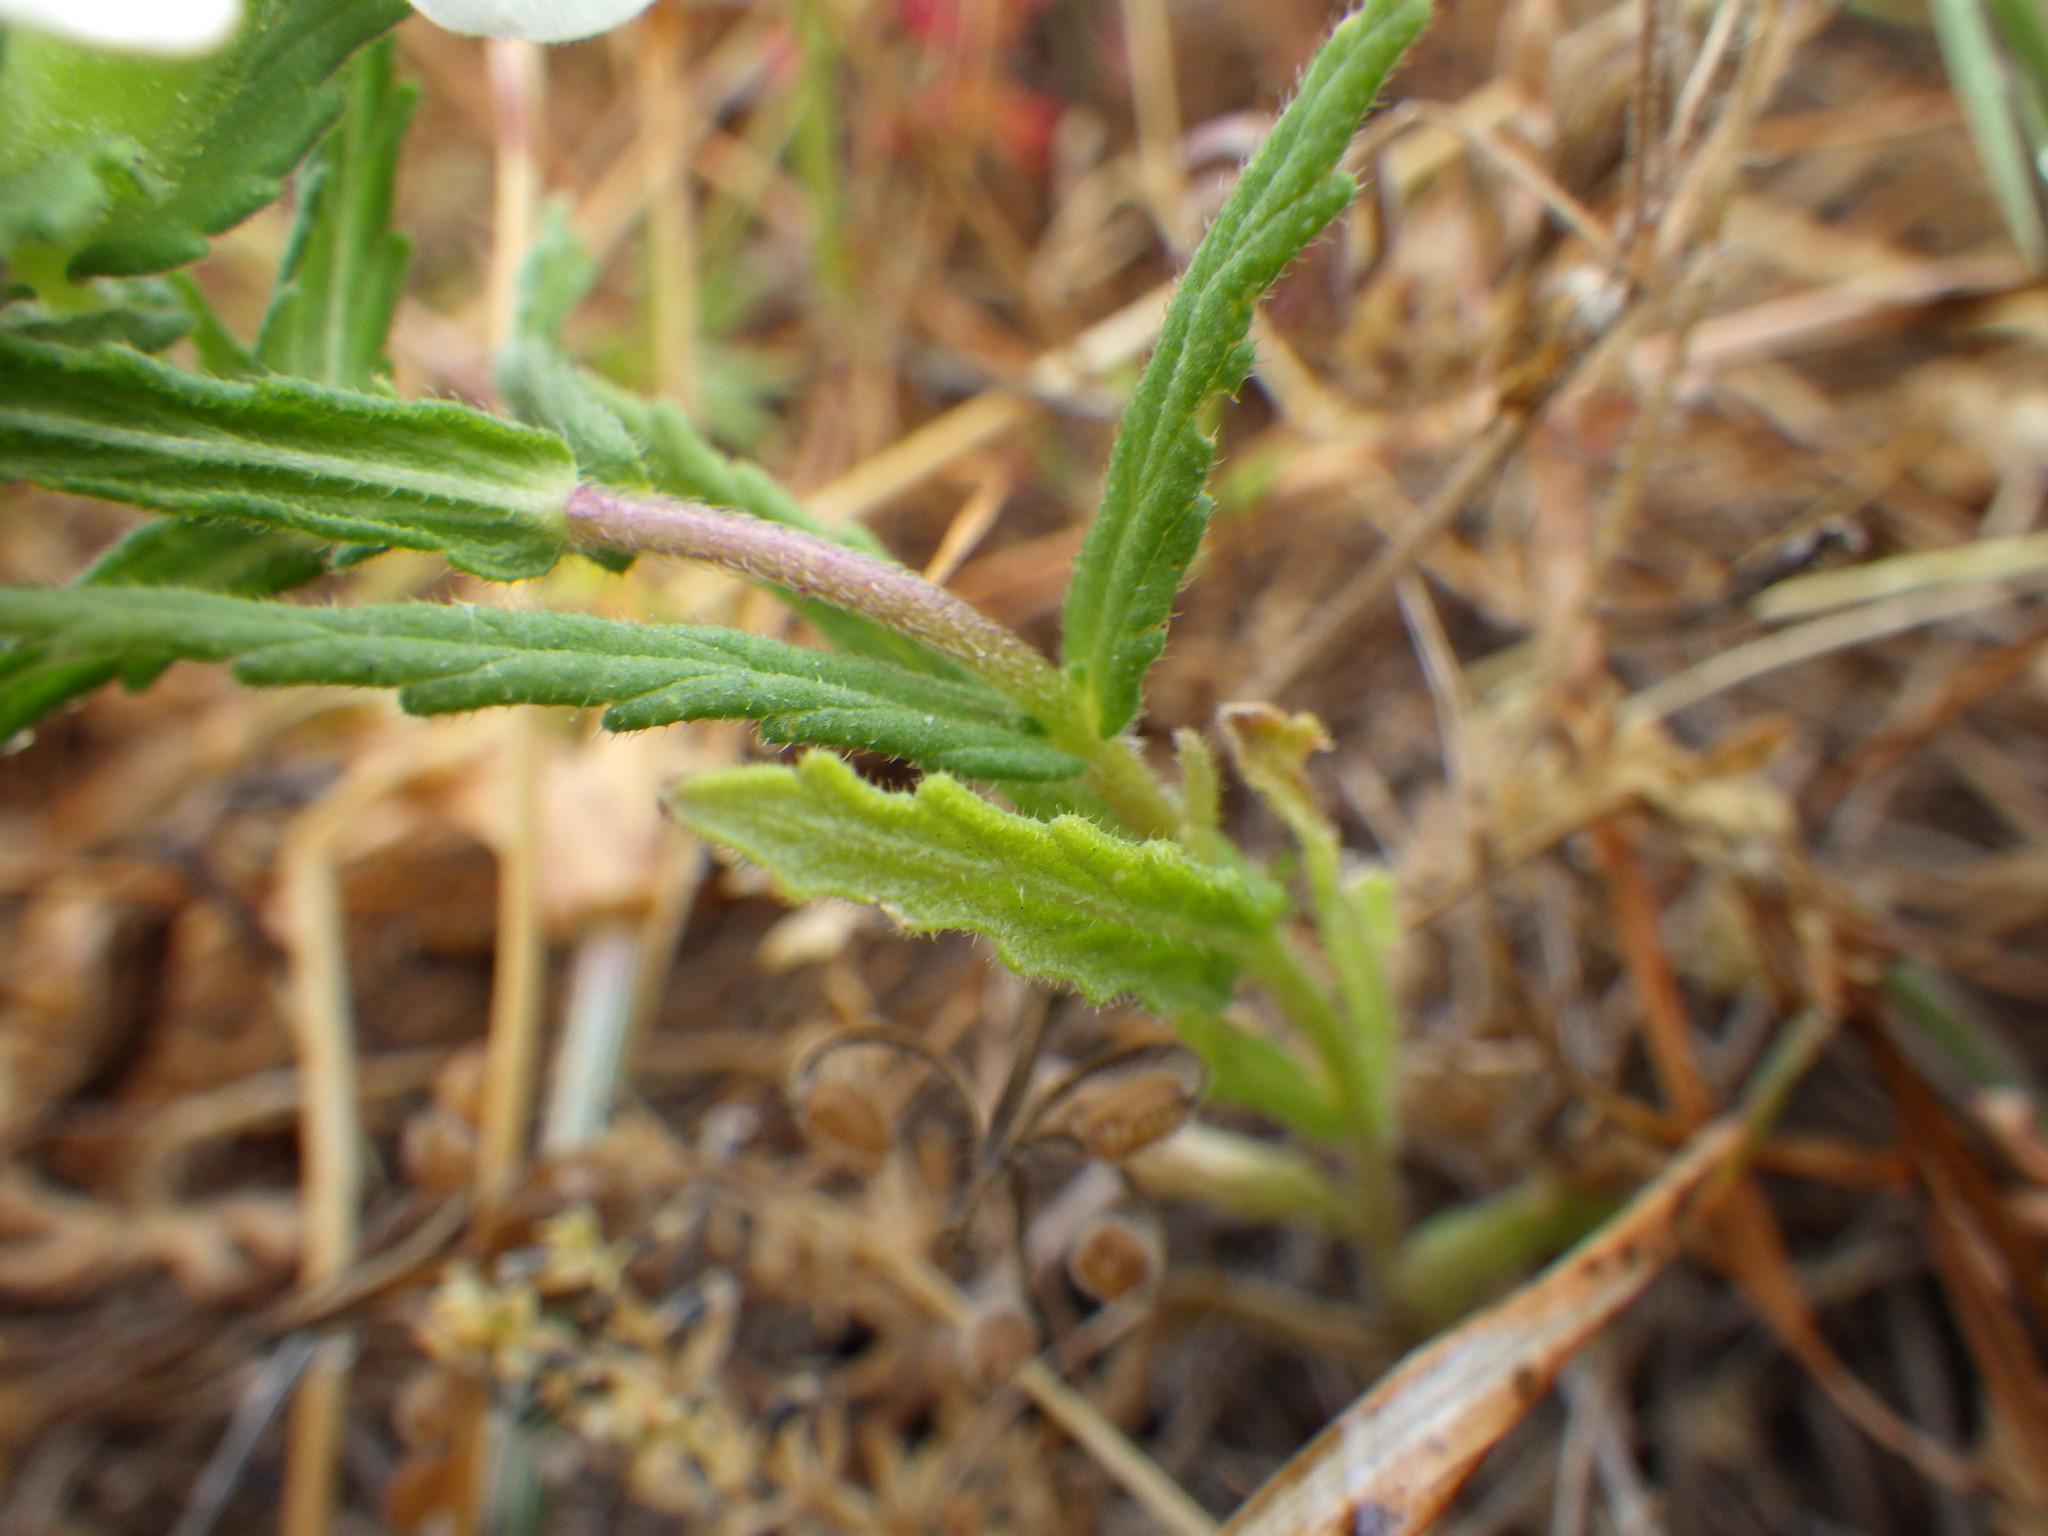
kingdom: Plantae
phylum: Tracheophyta
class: Magnoliopsida
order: Lamiales
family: Orobanchaceae
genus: Bellardia
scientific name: Bellardia trixago
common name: Mediterranean lineseed
